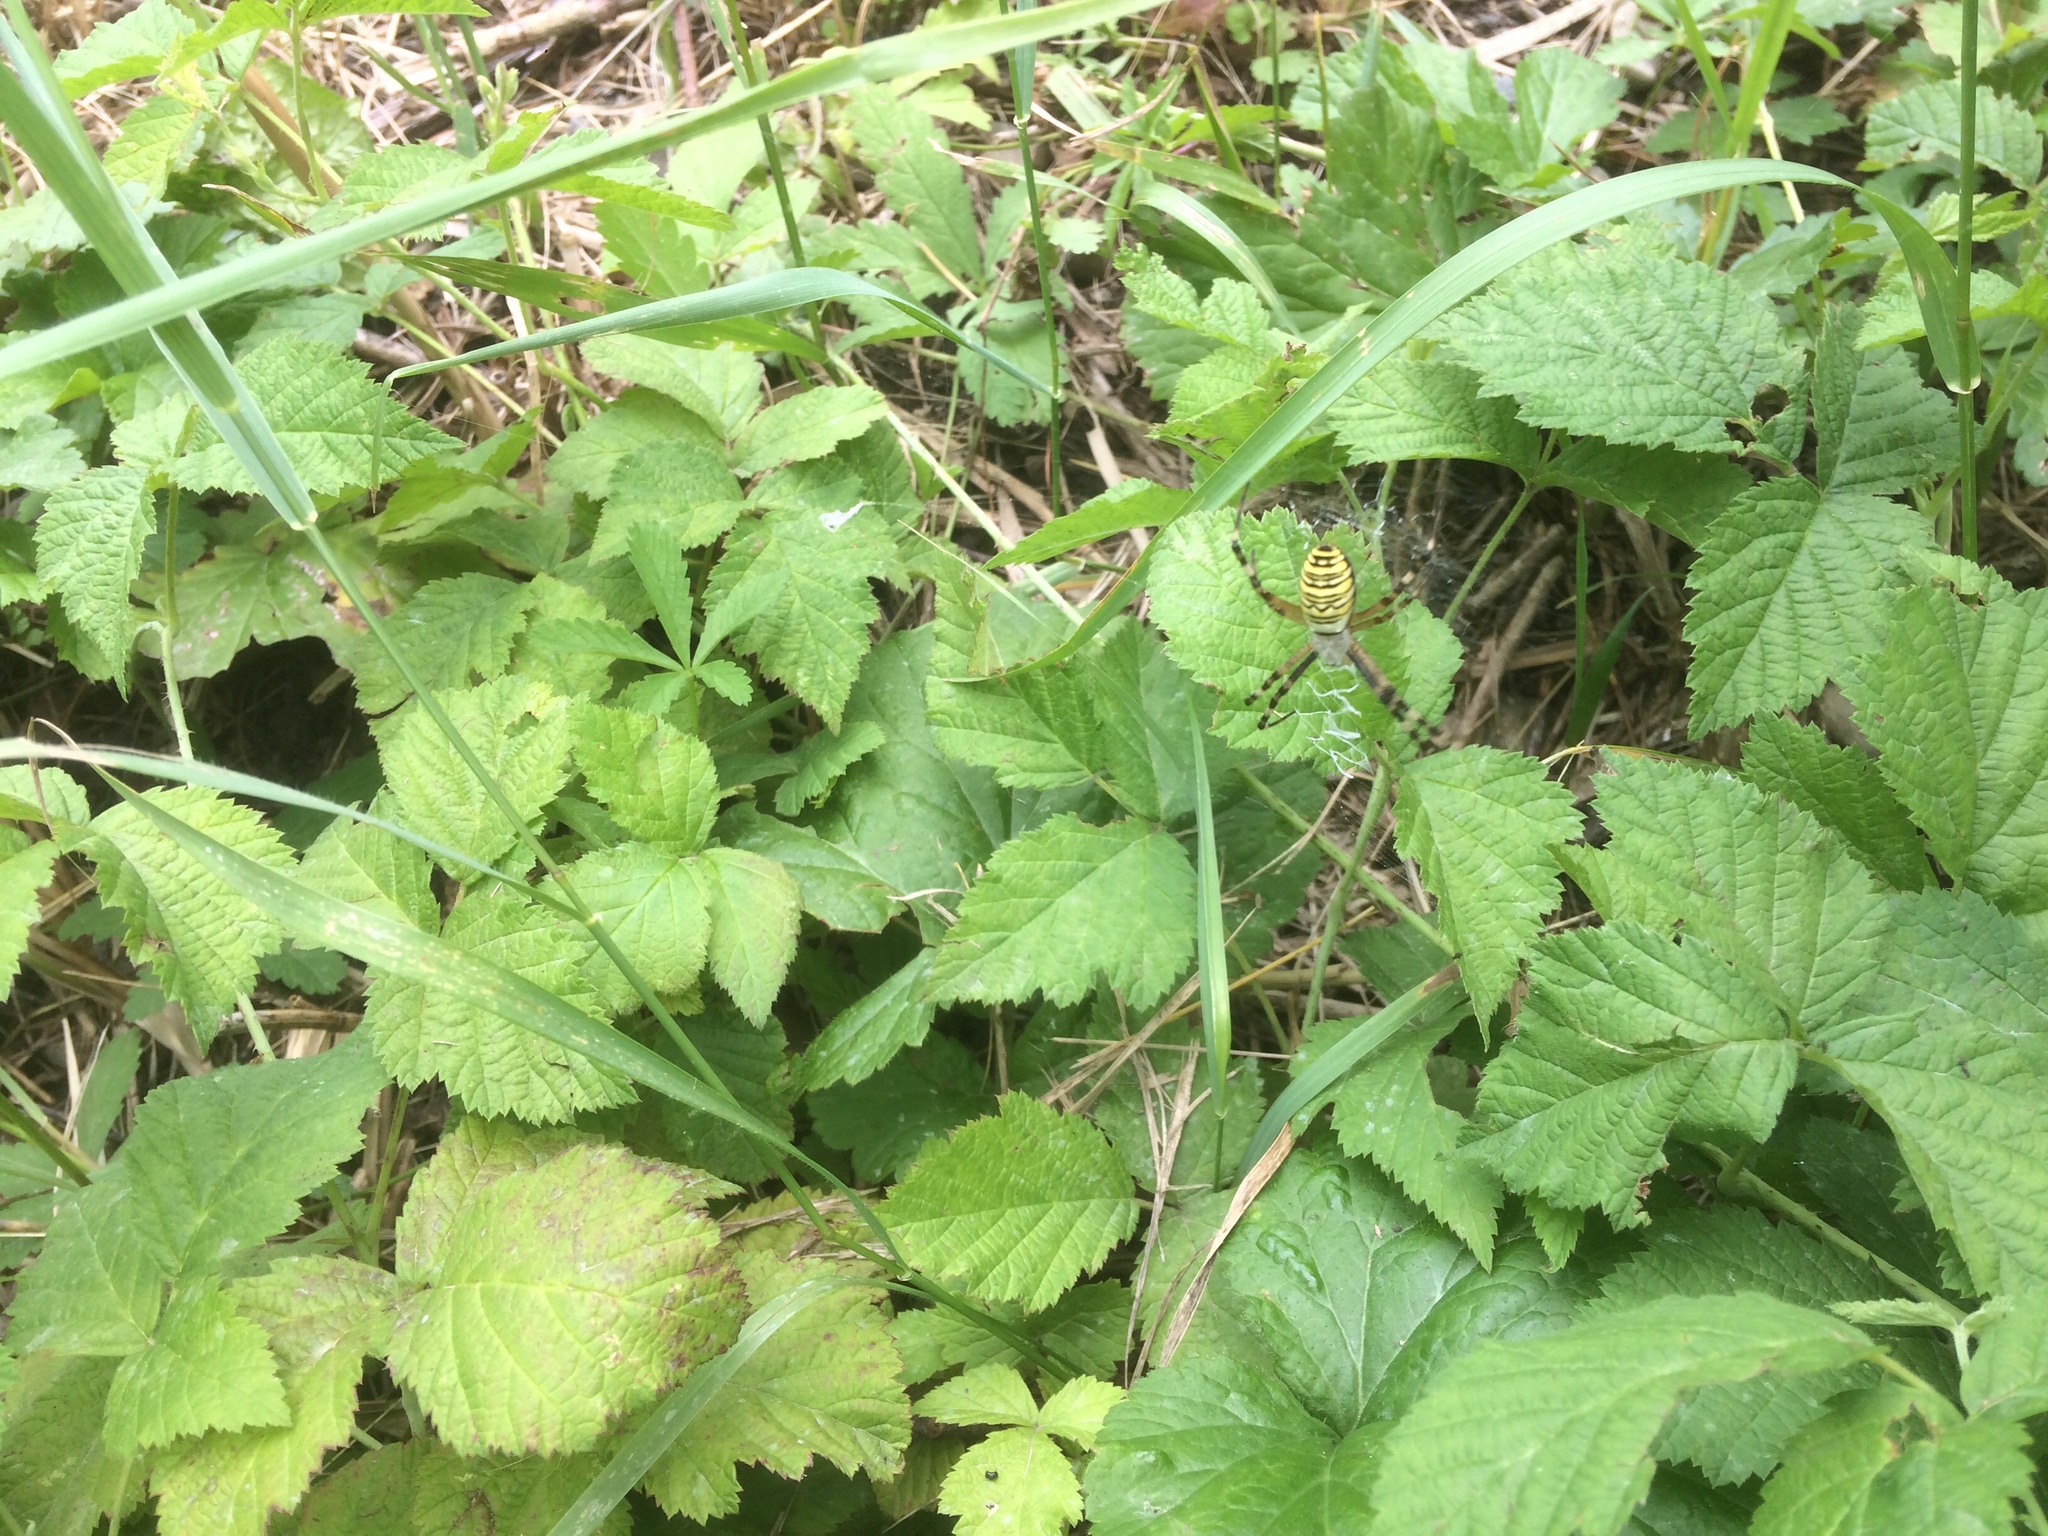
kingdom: Animalia
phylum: Arthropoda
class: Arachnida
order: Araneae
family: Araneidae
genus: Argiope
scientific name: Argiope bruennichi
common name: Wasp spider
